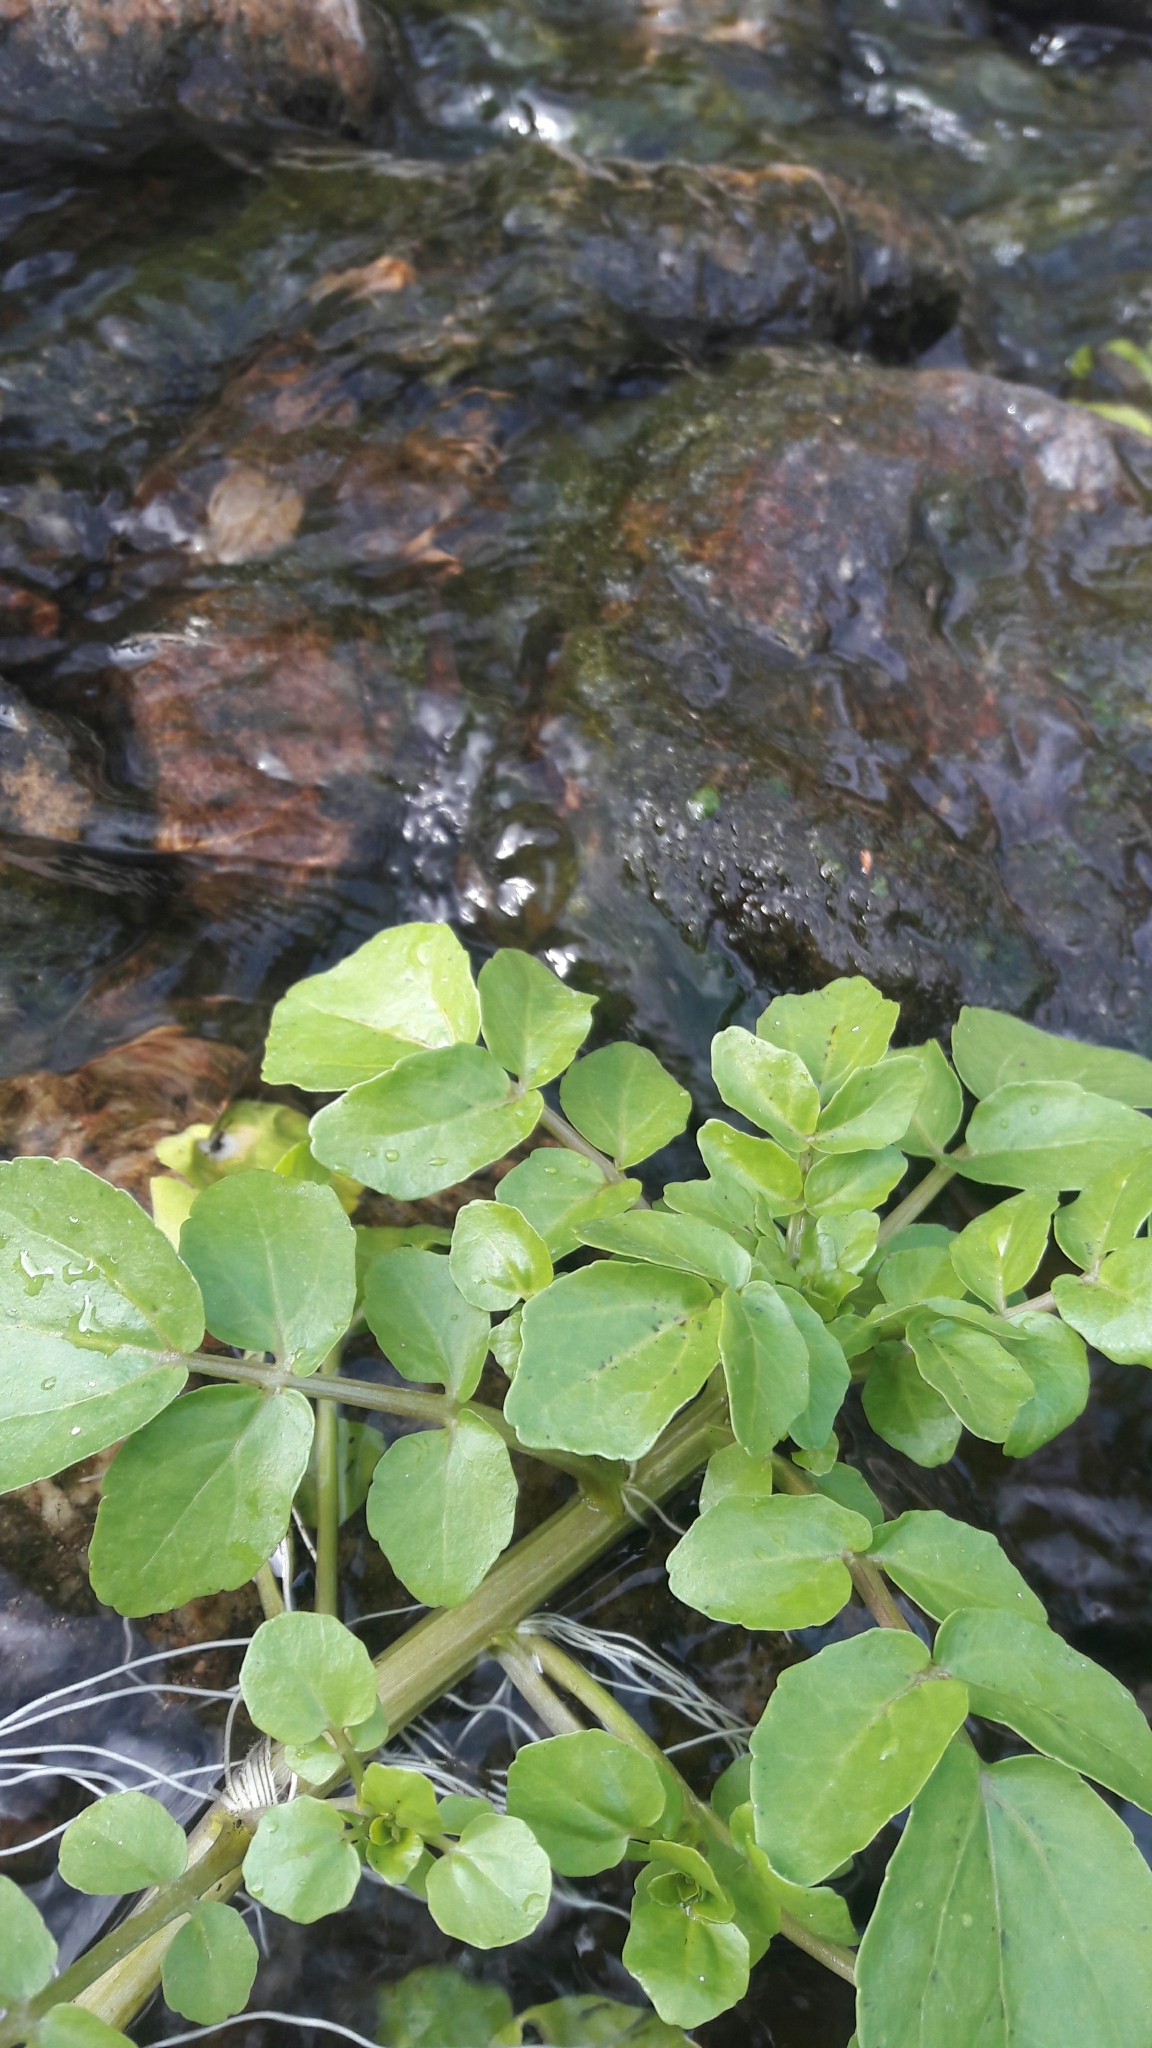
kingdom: Plantae
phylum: Tracheophyta
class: Magnoliopsida
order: Brassicales
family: Brassicaceae
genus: Nasturtium
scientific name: Nasturtium officinale
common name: Watercress
